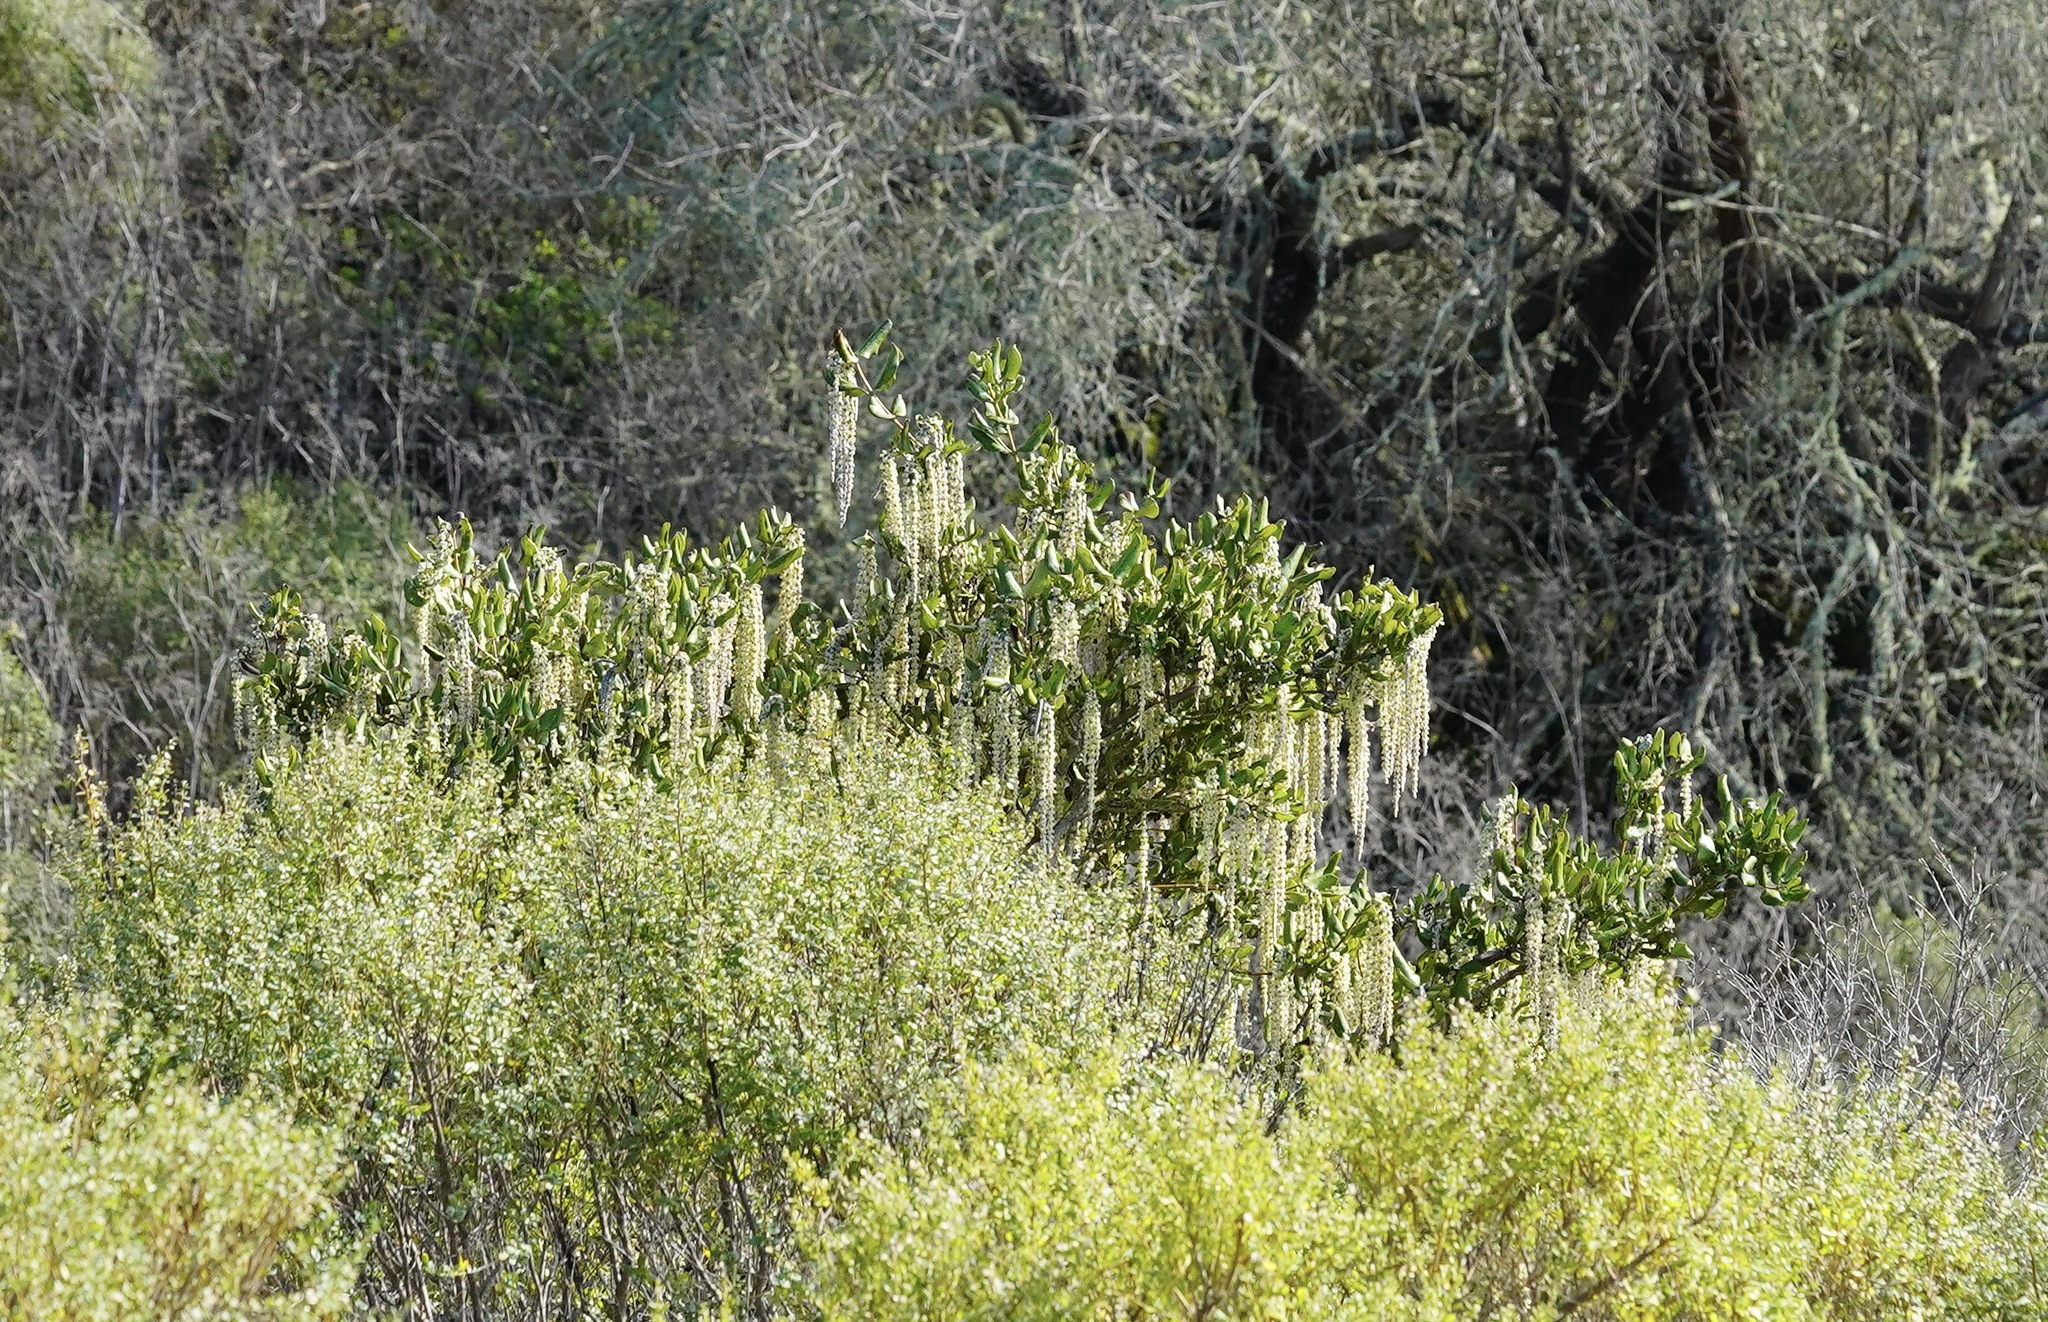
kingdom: Plantae
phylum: Tracheophyta
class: Magnoliopsida
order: Garryales
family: Garryaceae
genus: Garrya
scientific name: Garrya elliptica
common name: Silk-tassel
